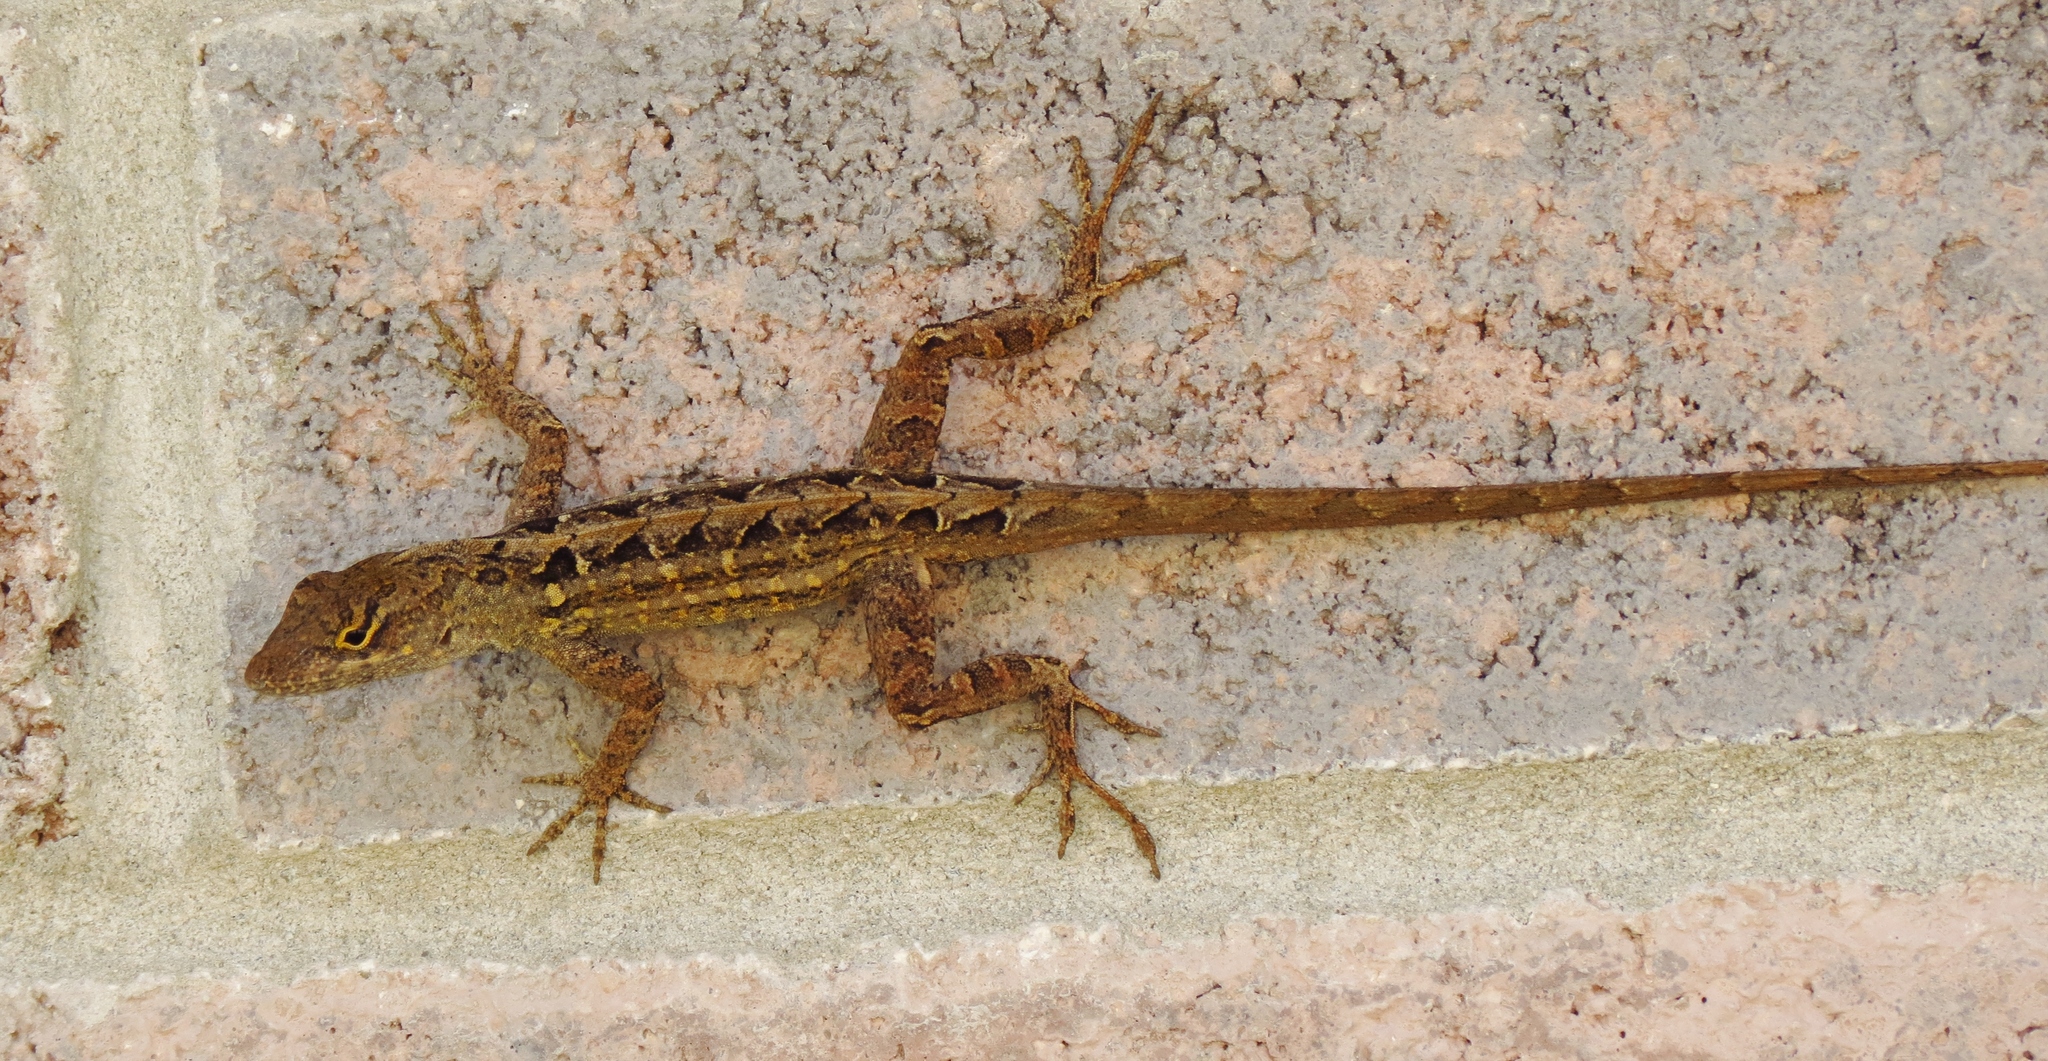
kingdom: Animalia
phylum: Chordata
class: Squamata
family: Dactyloidae
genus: Anolis
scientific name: Anolis sagrei
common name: Brown anole
